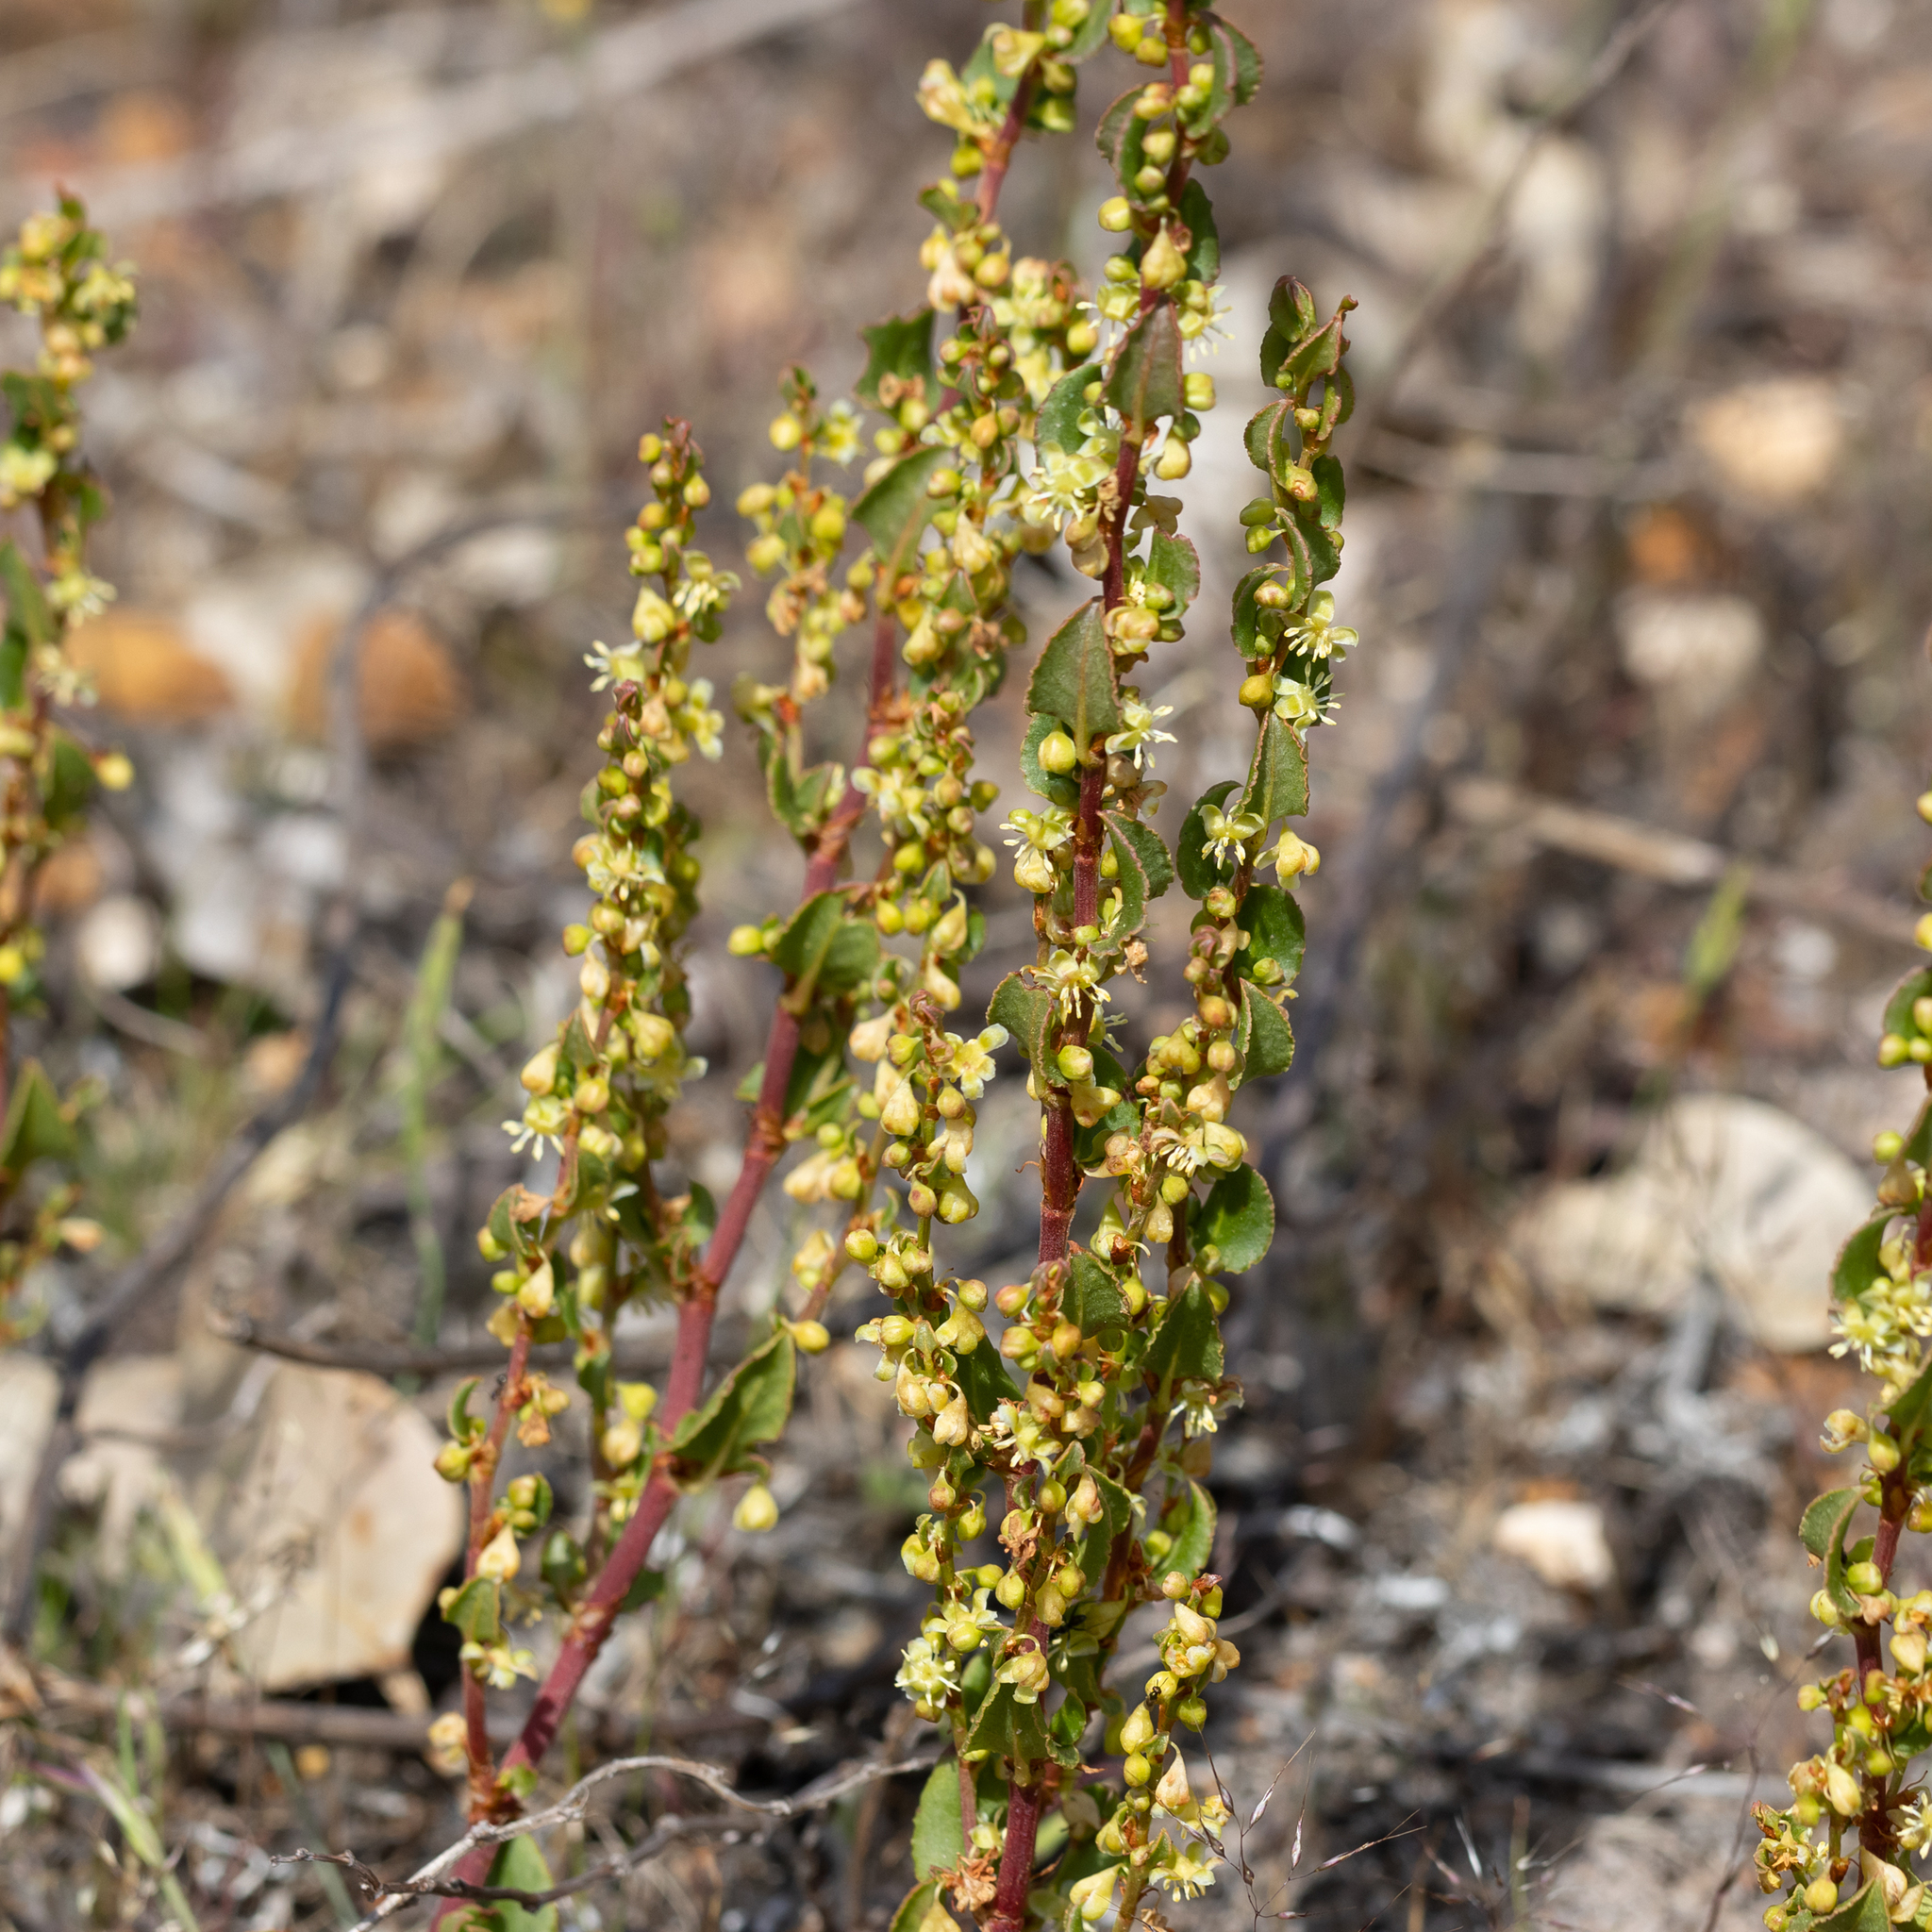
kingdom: Plantae
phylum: Tracheophyta
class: Magnoliopsida
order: Caryophyllales
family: Polygonaceae
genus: Muehlenbeckia
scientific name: Muehlenbeckia adpressa
